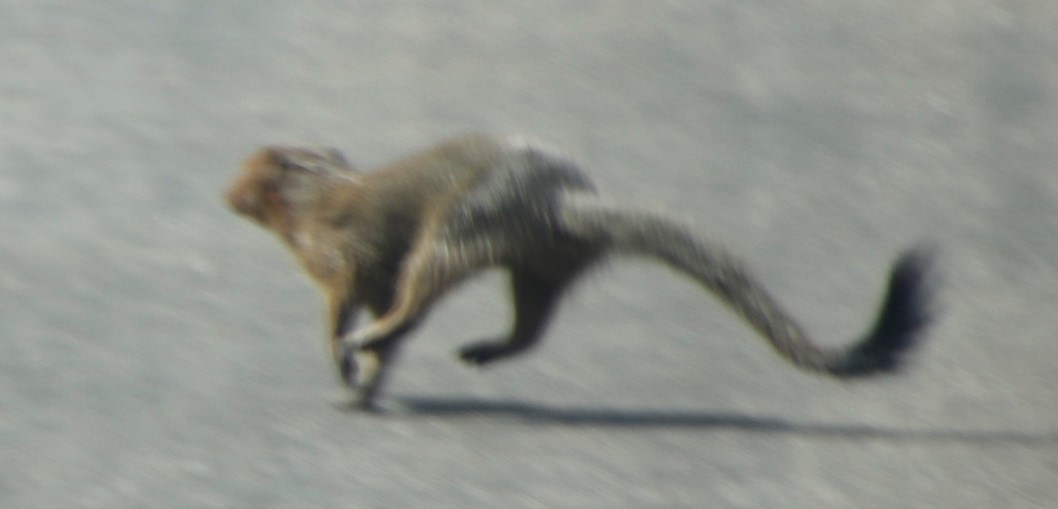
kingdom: Animalia
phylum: Chordata
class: Mammalia
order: Carnivora
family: Herpestidae
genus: Galerella
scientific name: Galerella sanguinea
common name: Slender mongoose
